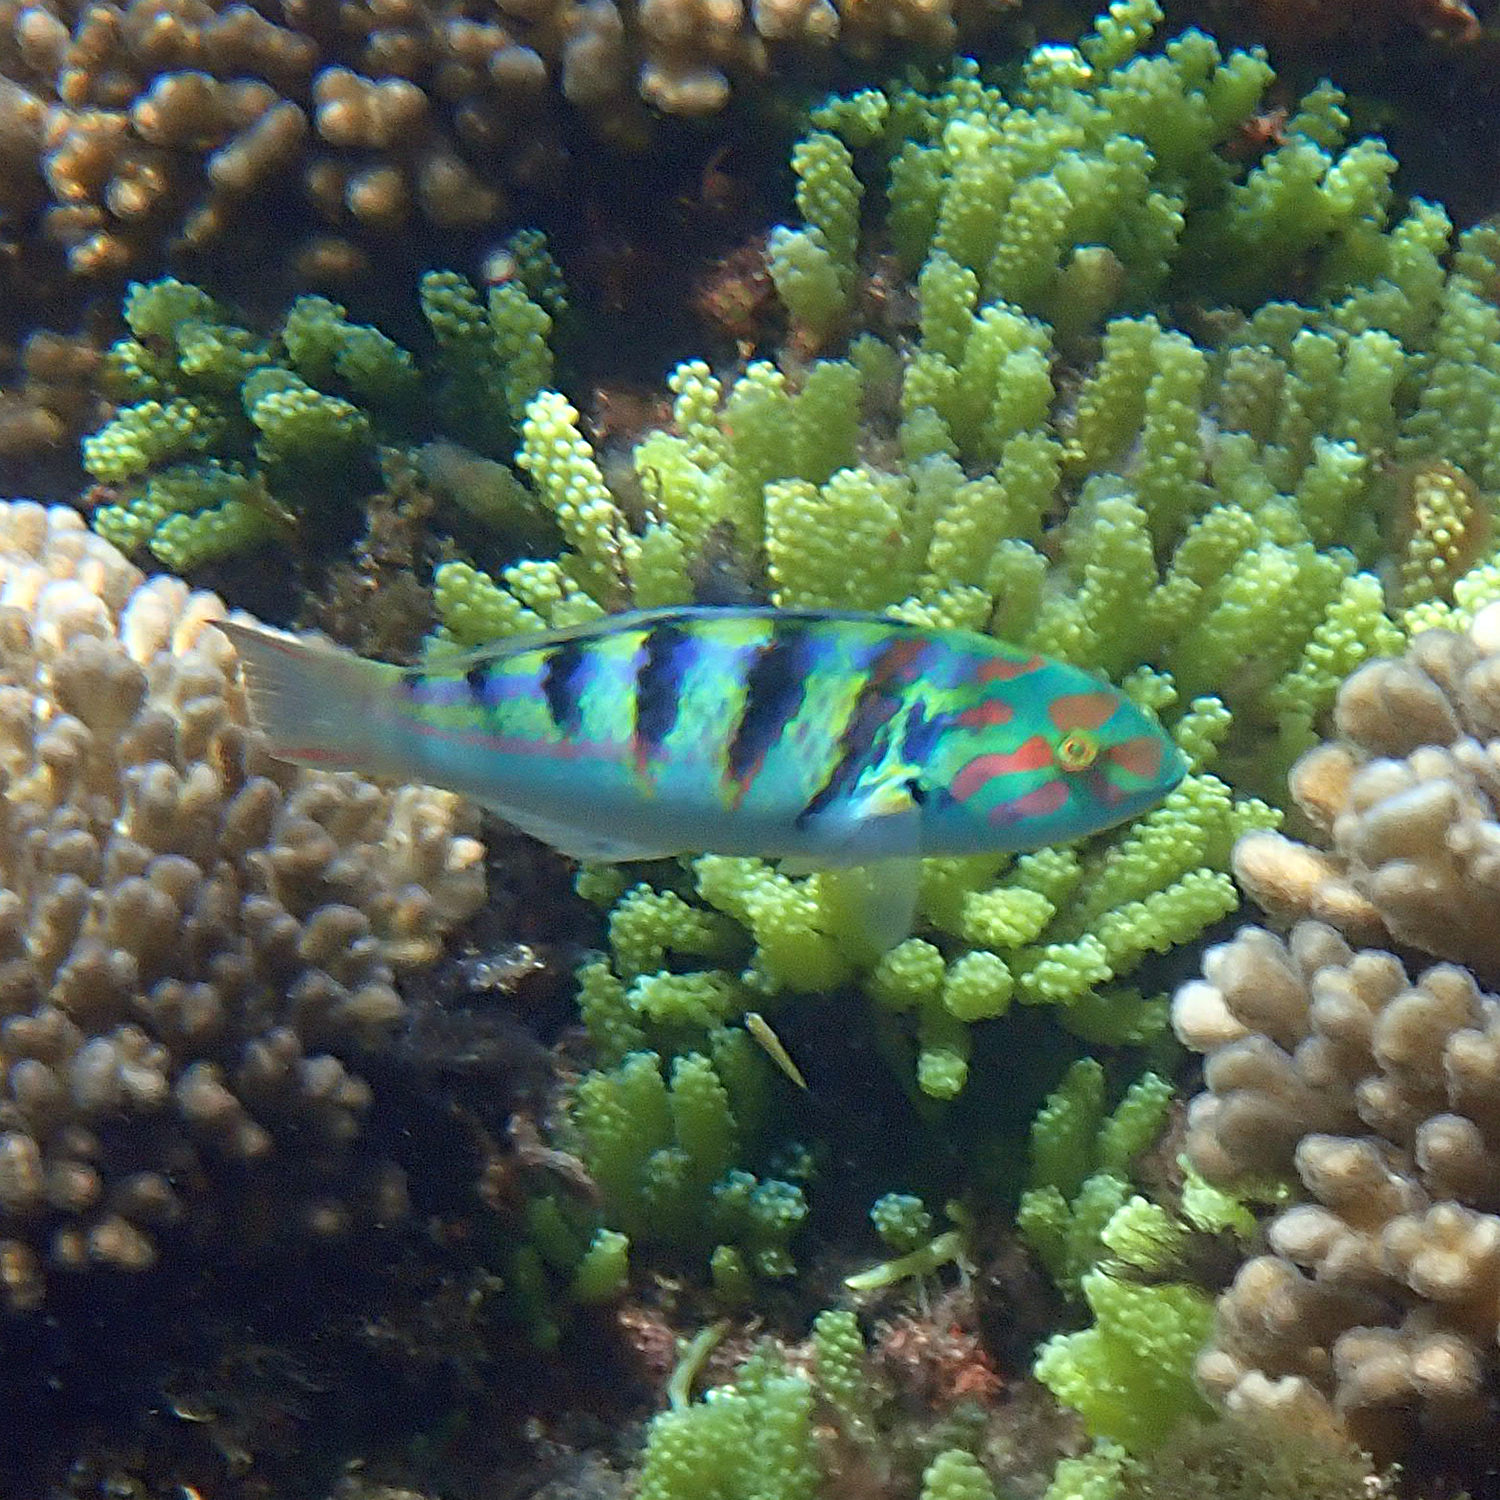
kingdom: Animalia
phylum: Chordata
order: Perciformes
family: Labridae
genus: Thalassoma
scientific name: Thalassoma hardwicke
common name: Sixbar wrasse
